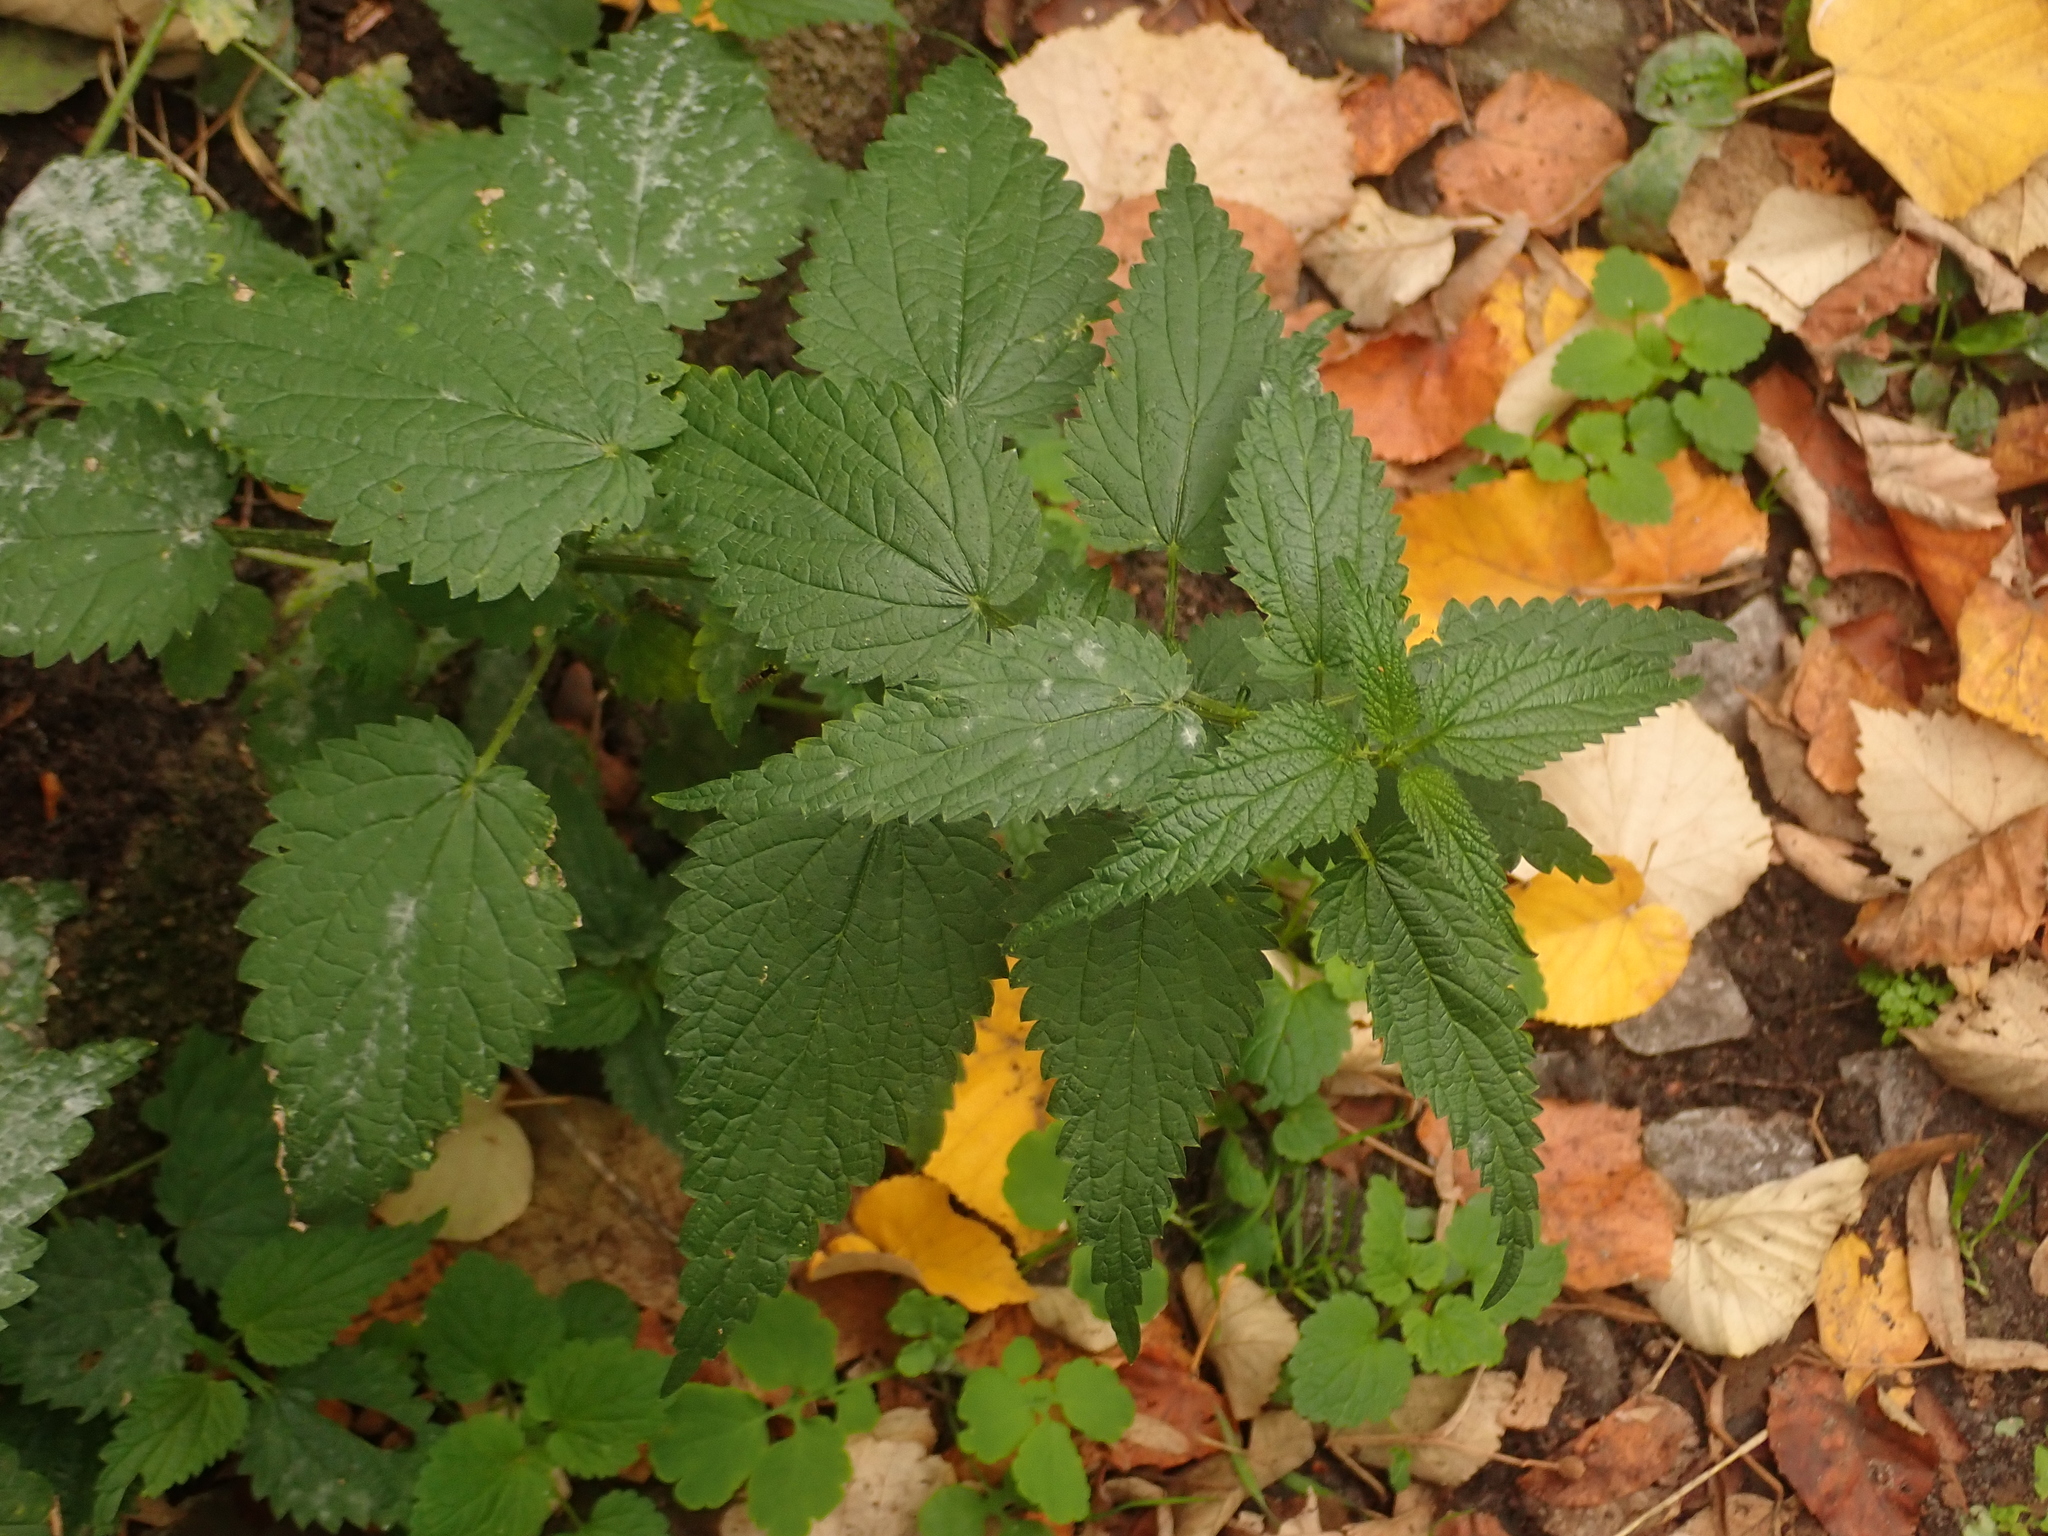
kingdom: Plantae
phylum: Tracheophyta
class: Magnoliopsida
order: Rosales
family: Urticaceae
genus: Urtica
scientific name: Urtica dioica
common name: Common nettle
